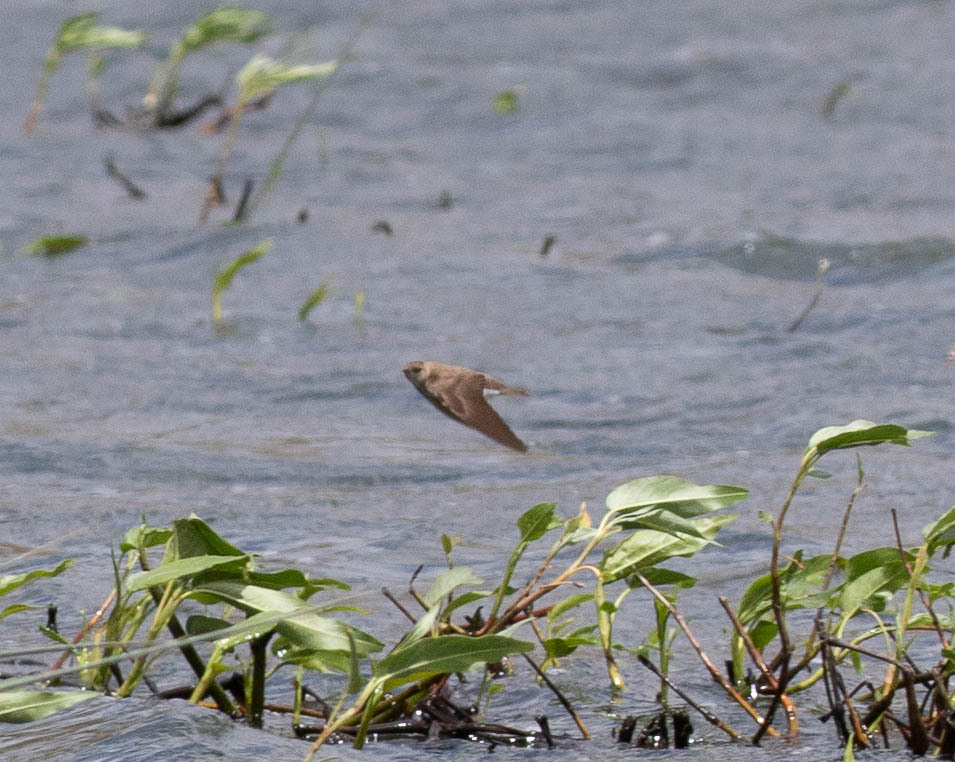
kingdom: Animalia
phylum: Chordata
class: Aves
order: Passeriformes
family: Hirundinidae
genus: Stelgidopteryx
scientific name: Stelgidopteryx serripennis
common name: Northern rough-winged swallow
